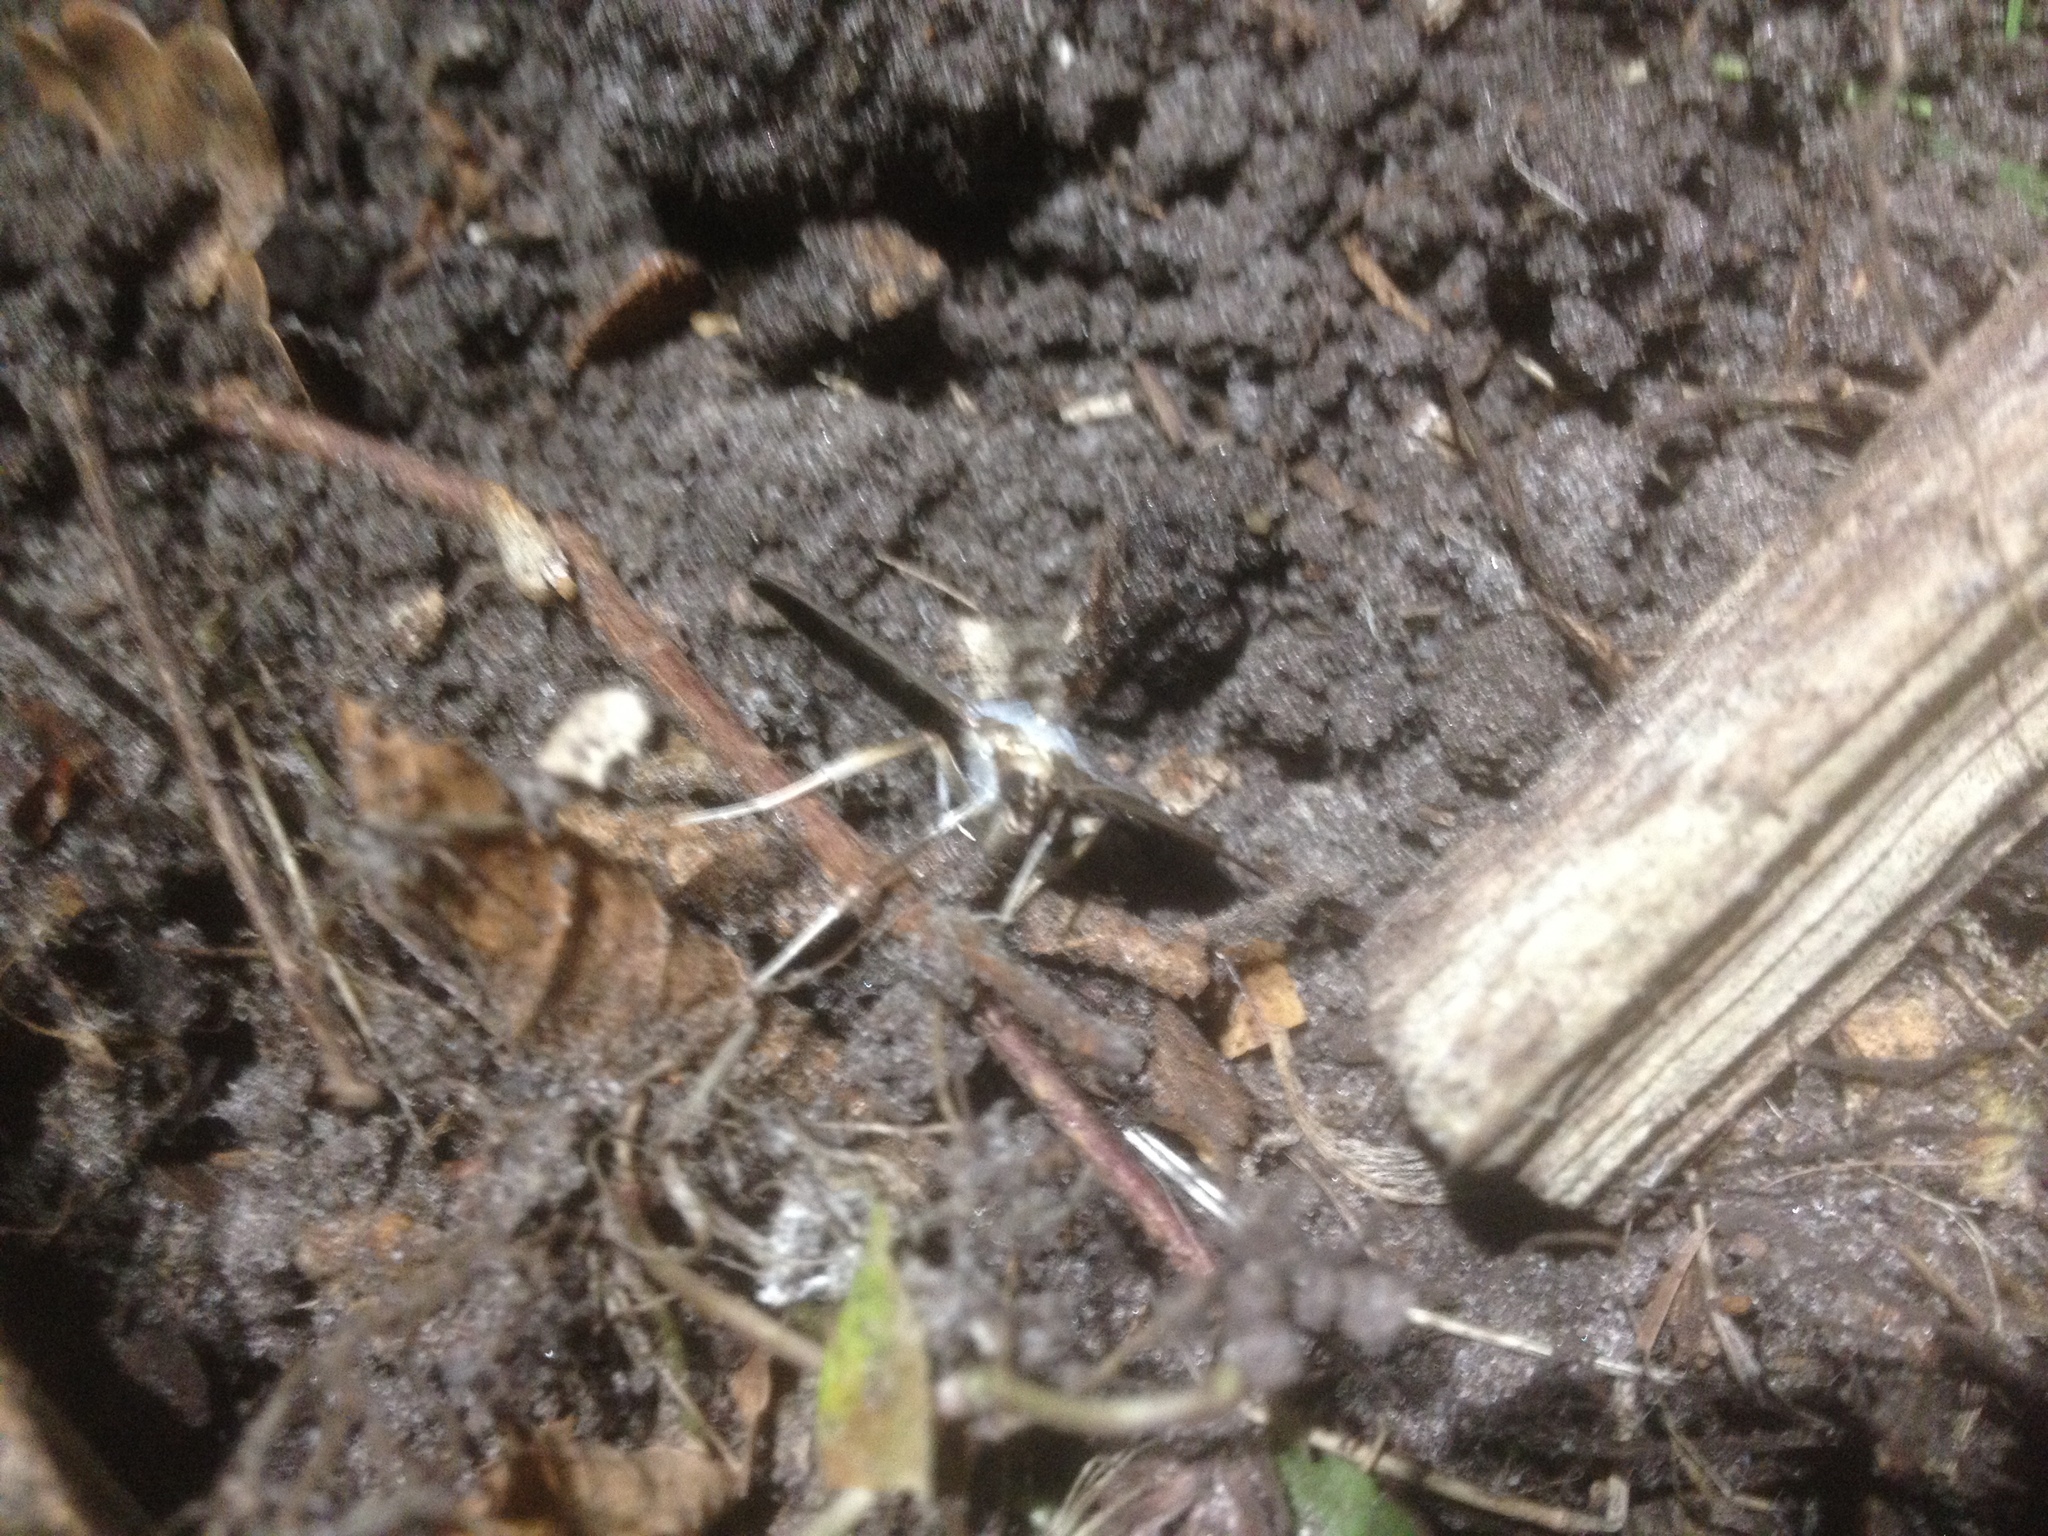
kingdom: Animalia
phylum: Arthropoda
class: Insecta
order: Lepidoptera
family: Crambidae
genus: Cydalima
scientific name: Cydalima perspectalis
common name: Box tree moth
